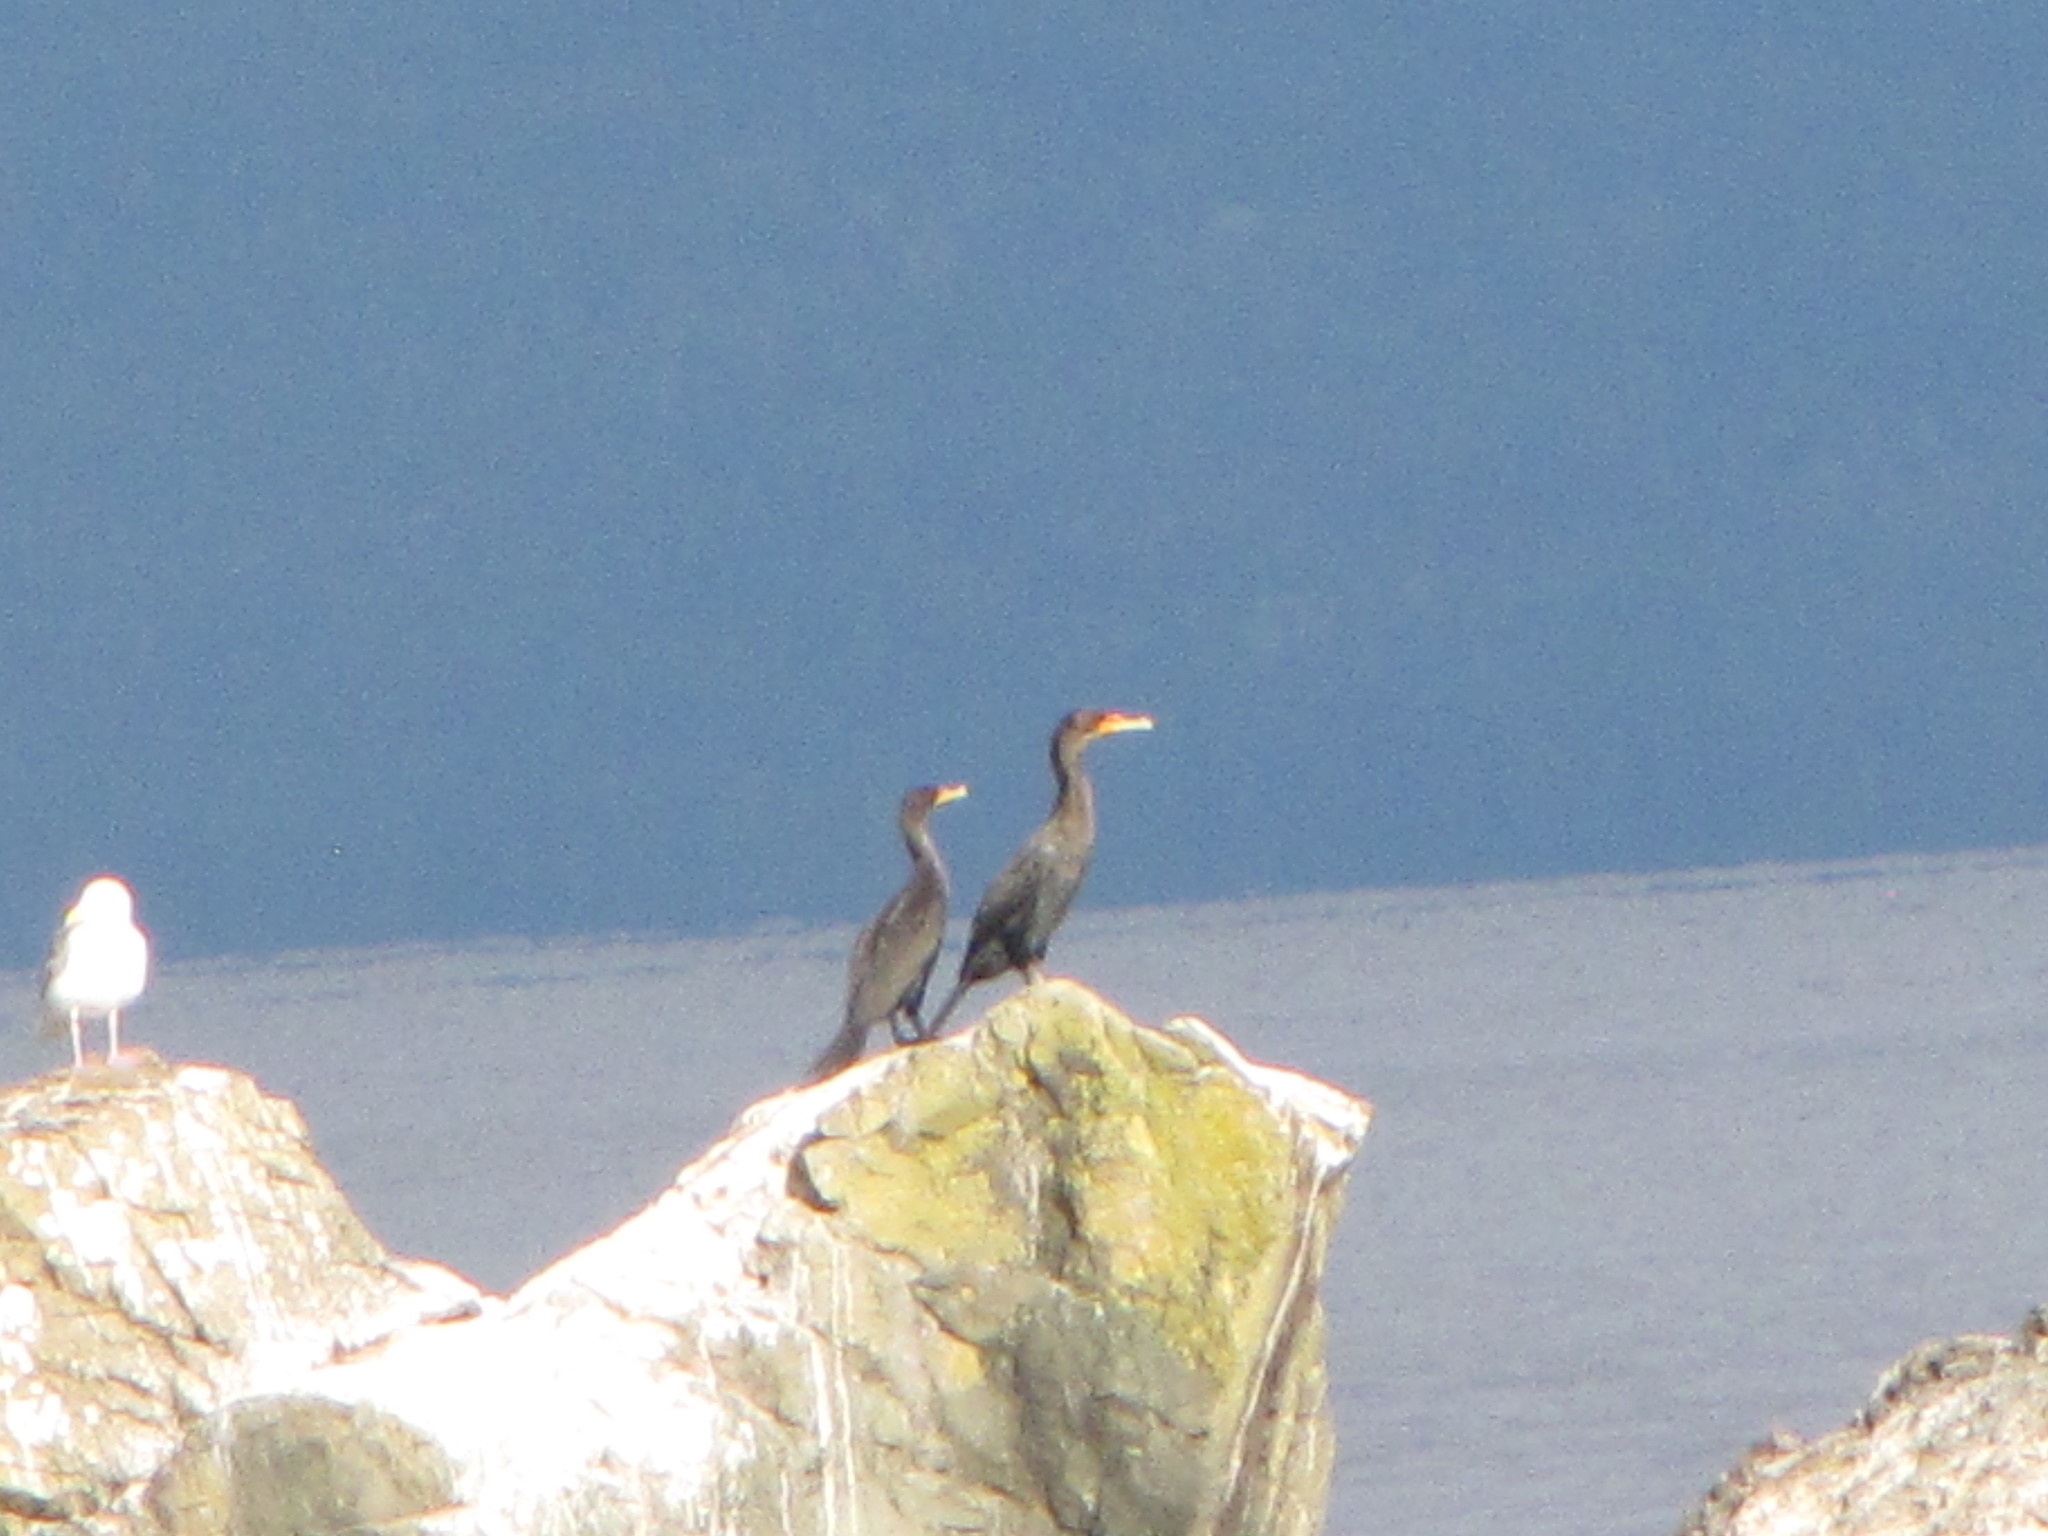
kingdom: Animalia
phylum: Chordata
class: Aves
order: Suliformes
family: Phalacrocoracidae
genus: Phalacrocorax
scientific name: Phalacrocorax auritus
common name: Double-crested cormorant
